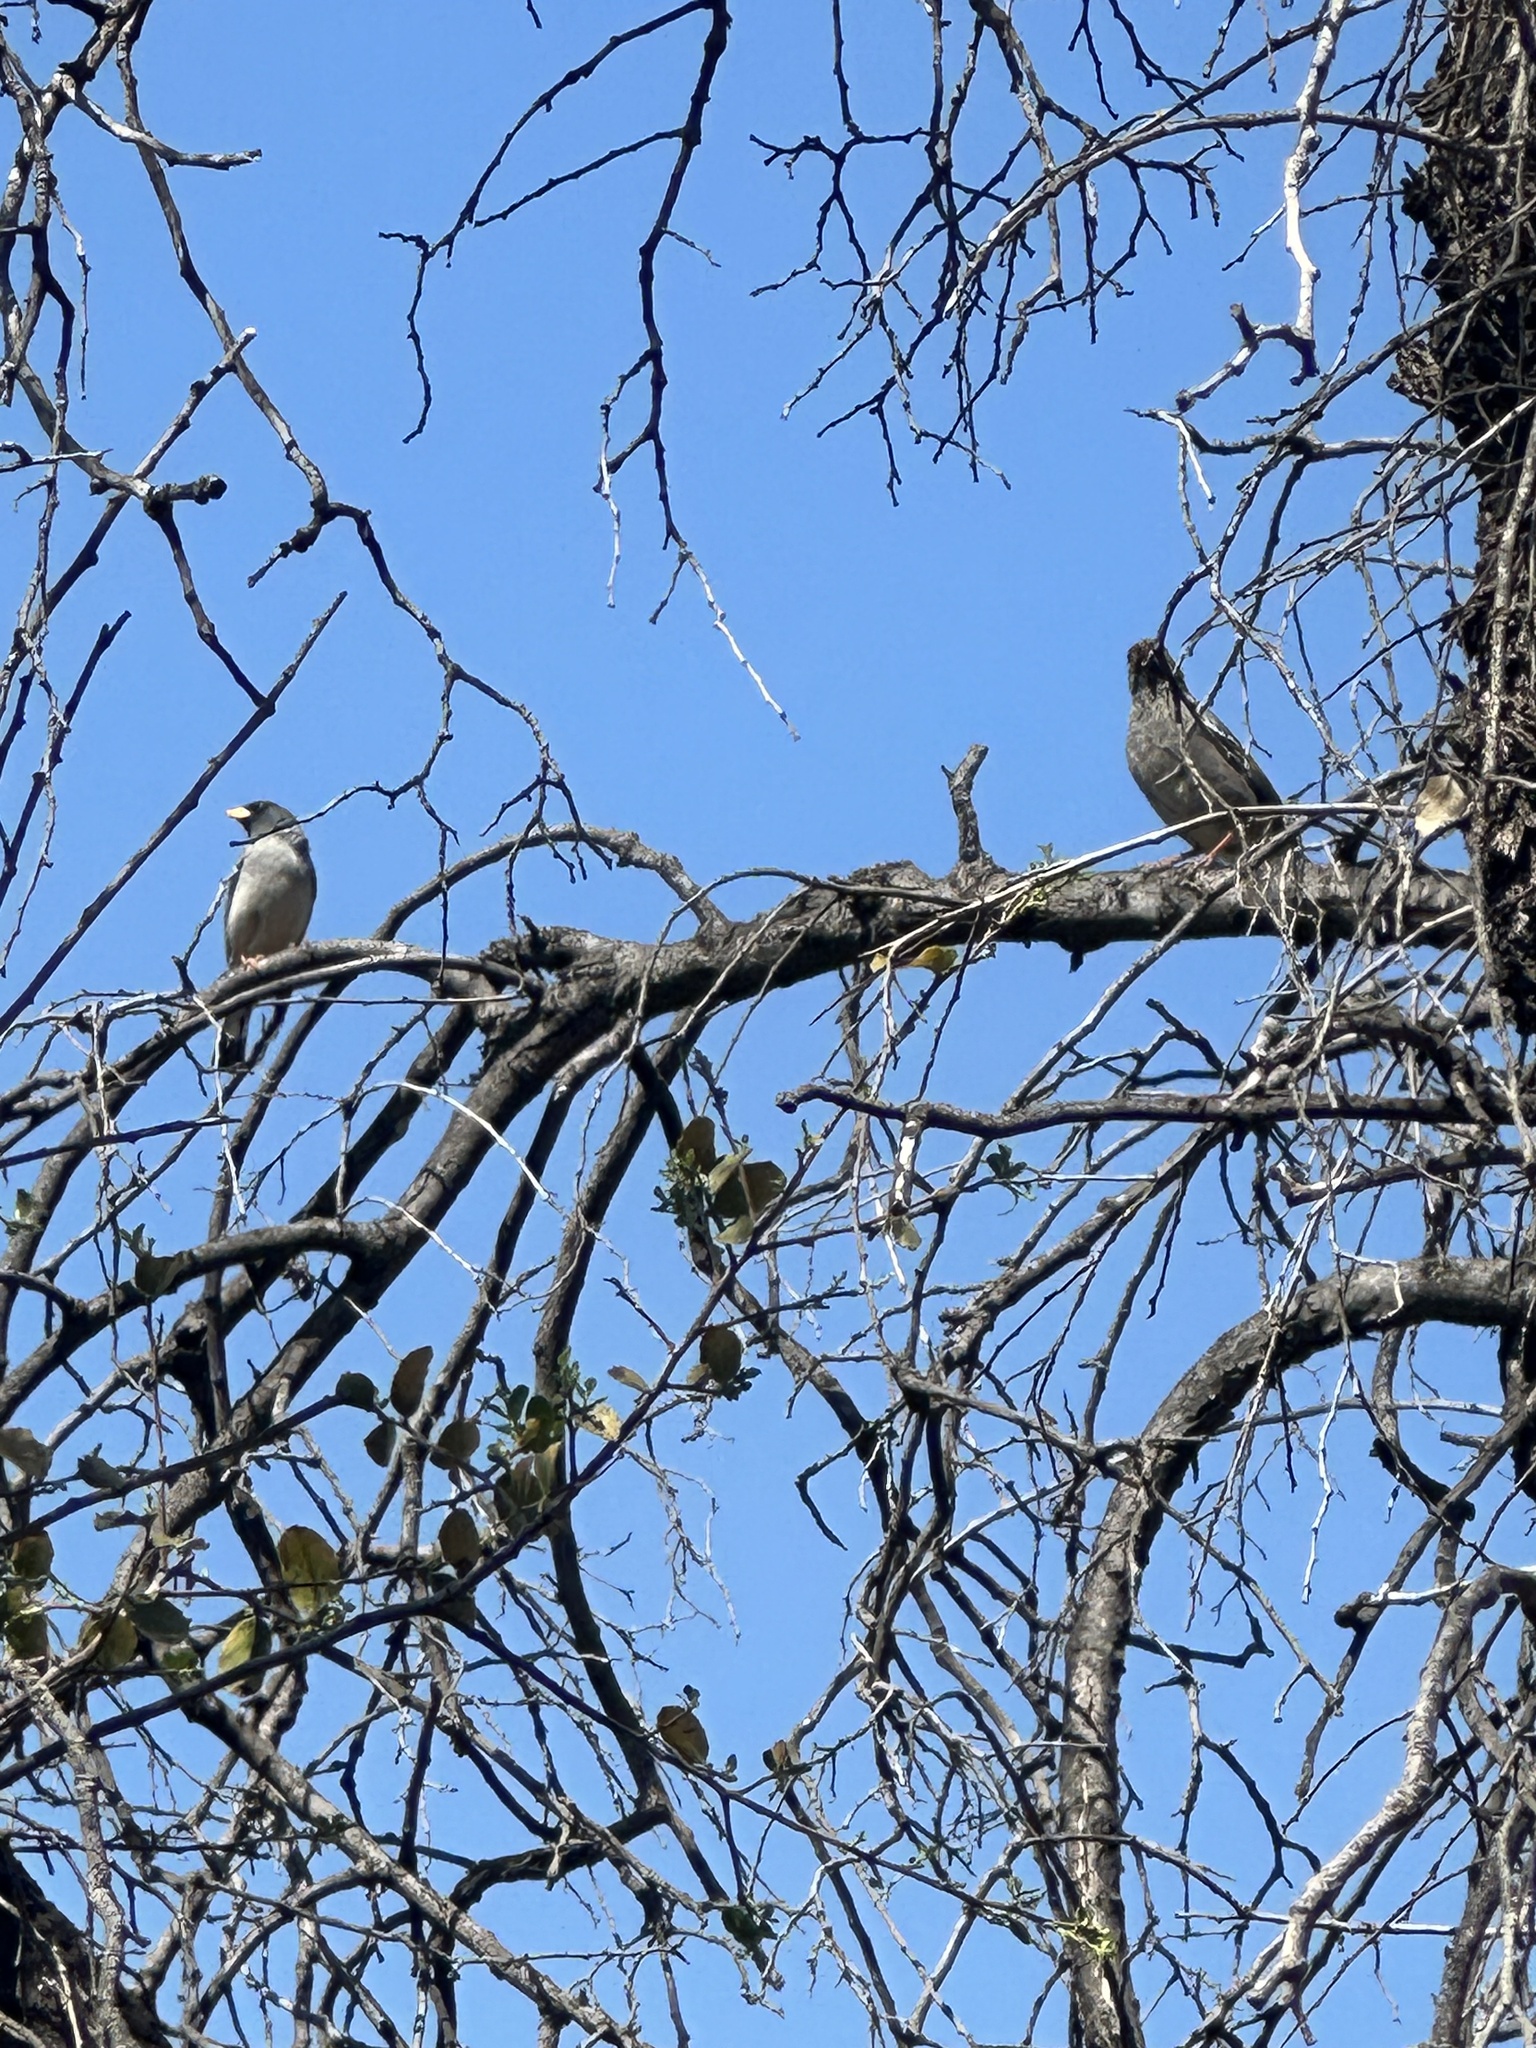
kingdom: Animalia
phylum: Chordata
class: Aves
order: Passeriformes
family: Thraupidae
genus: Rhopospina
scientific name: Rhopospina fruticeti
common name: Mourning sierra finch
